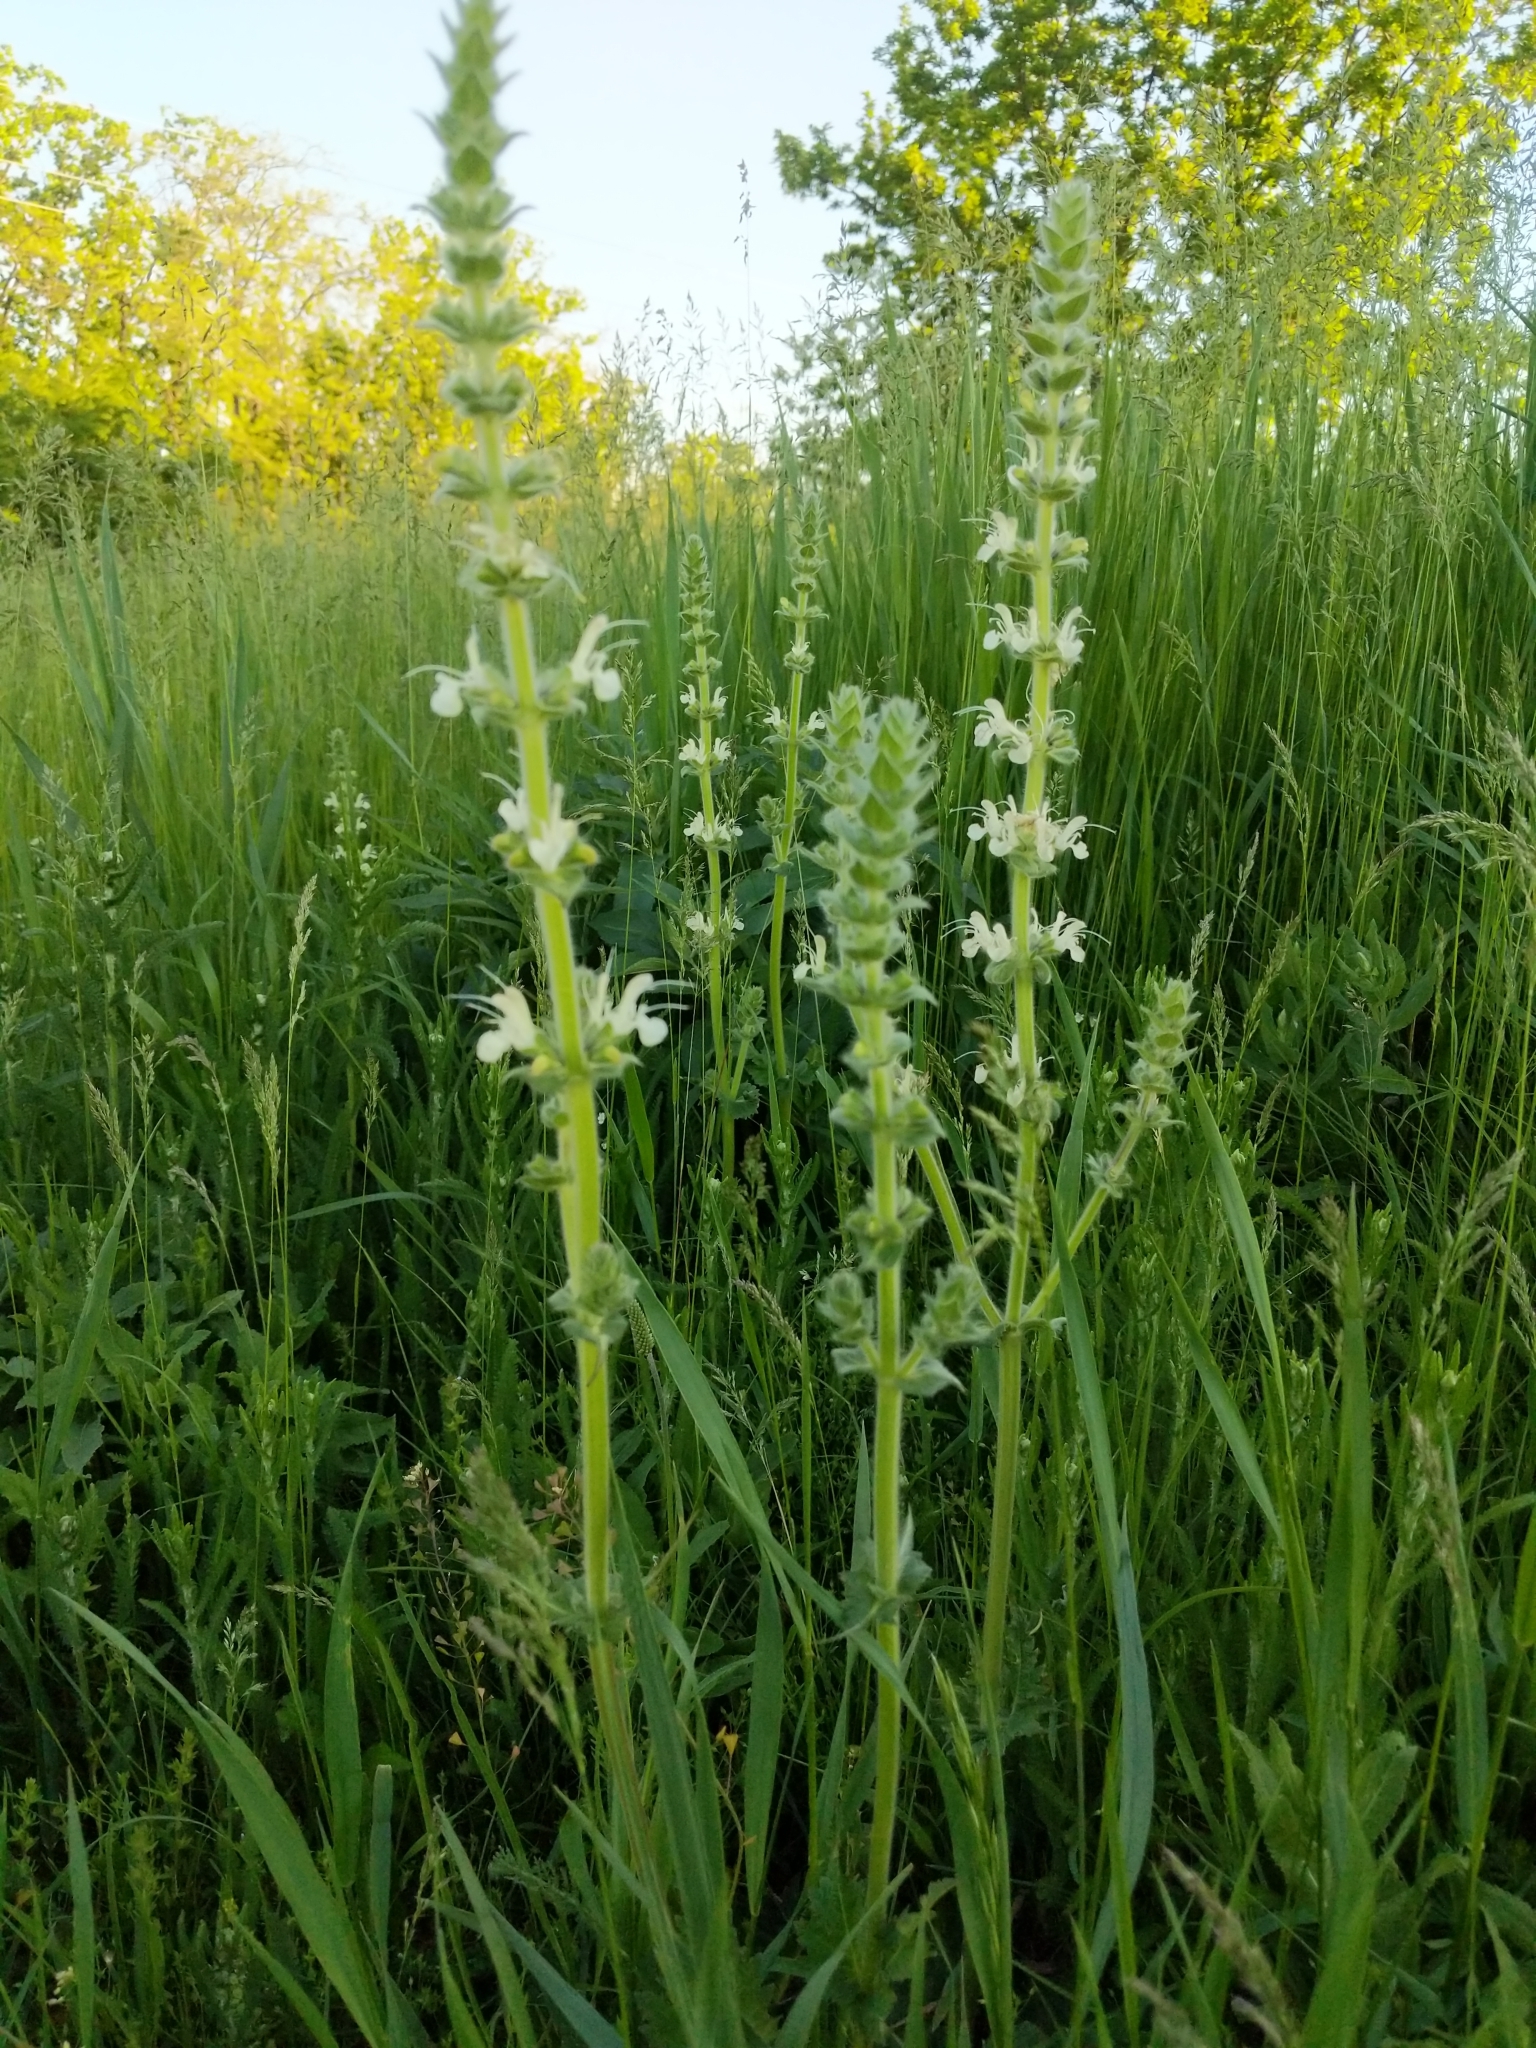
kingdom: Plantae
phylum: Tracheophyta
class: Magnoliopsida
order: Lamiales
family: Lamiaceae
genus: Salvia
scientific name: Salvia austriaca
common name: Austrian sage
